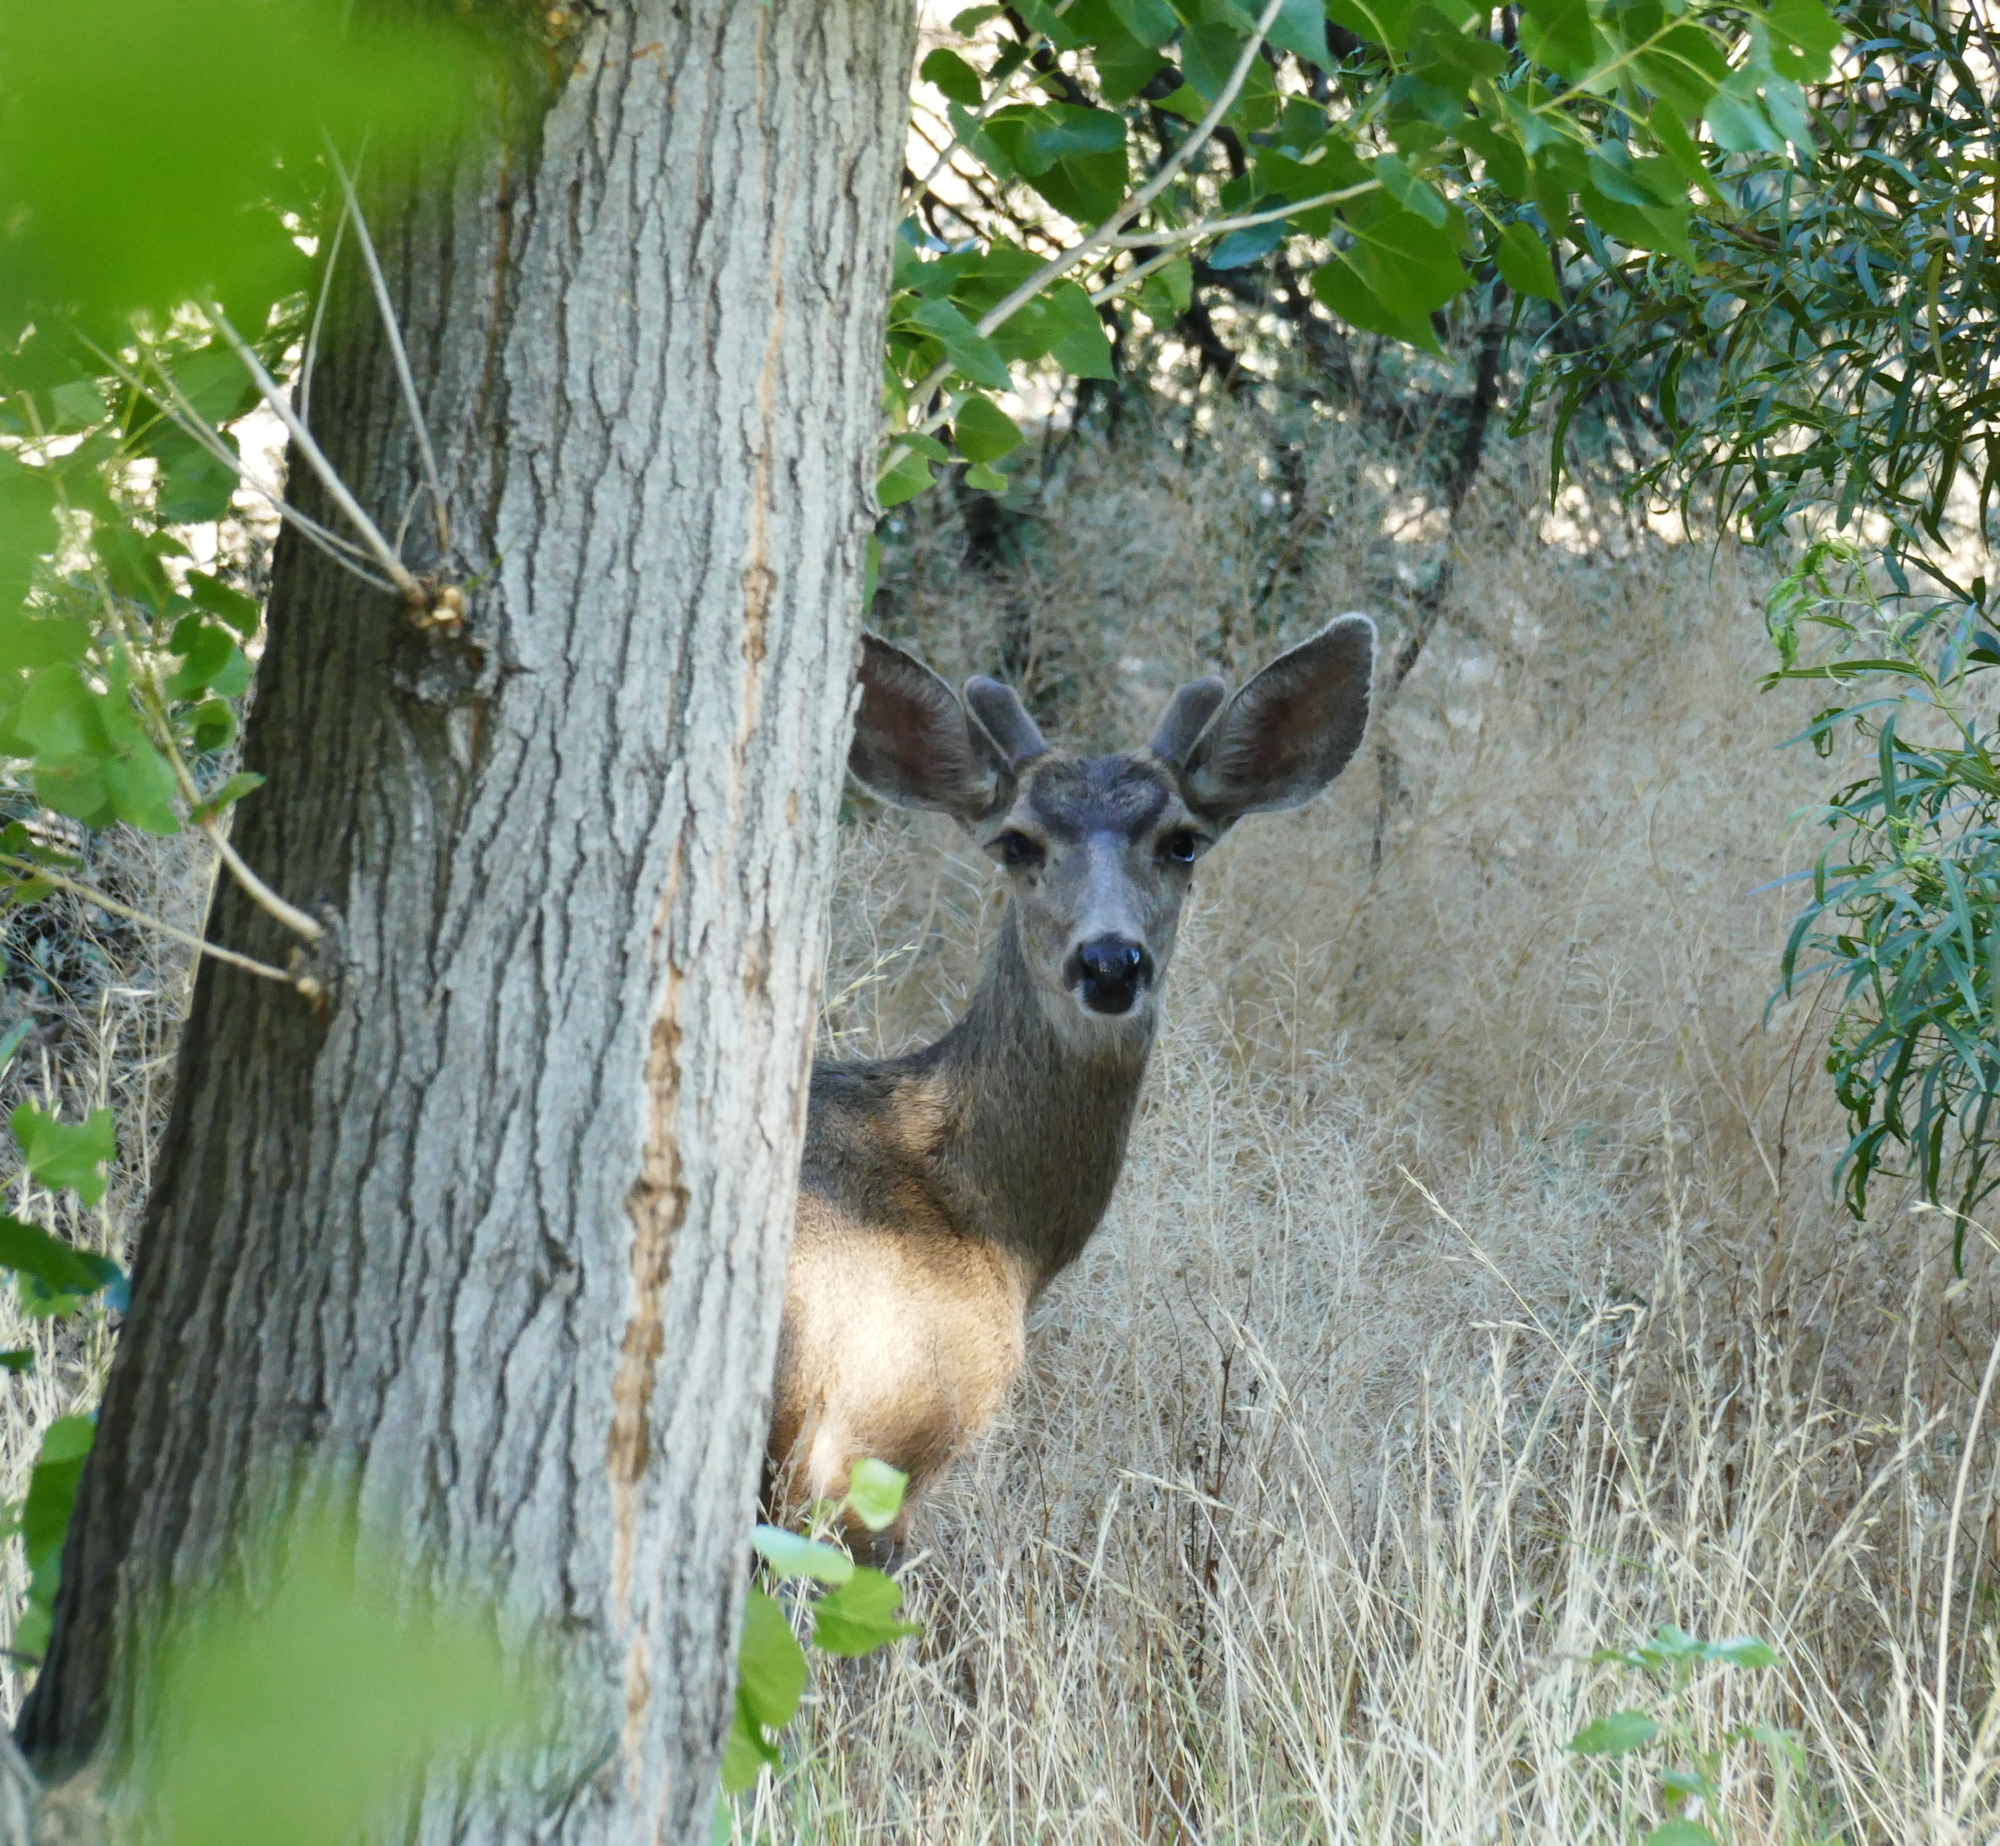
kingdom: Animalia
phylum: Chordata
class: Mammalia
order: Artiodactyla
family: Cervidae
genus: Odocoileus
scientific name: Odocoileus hemionus
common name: Mule deer
